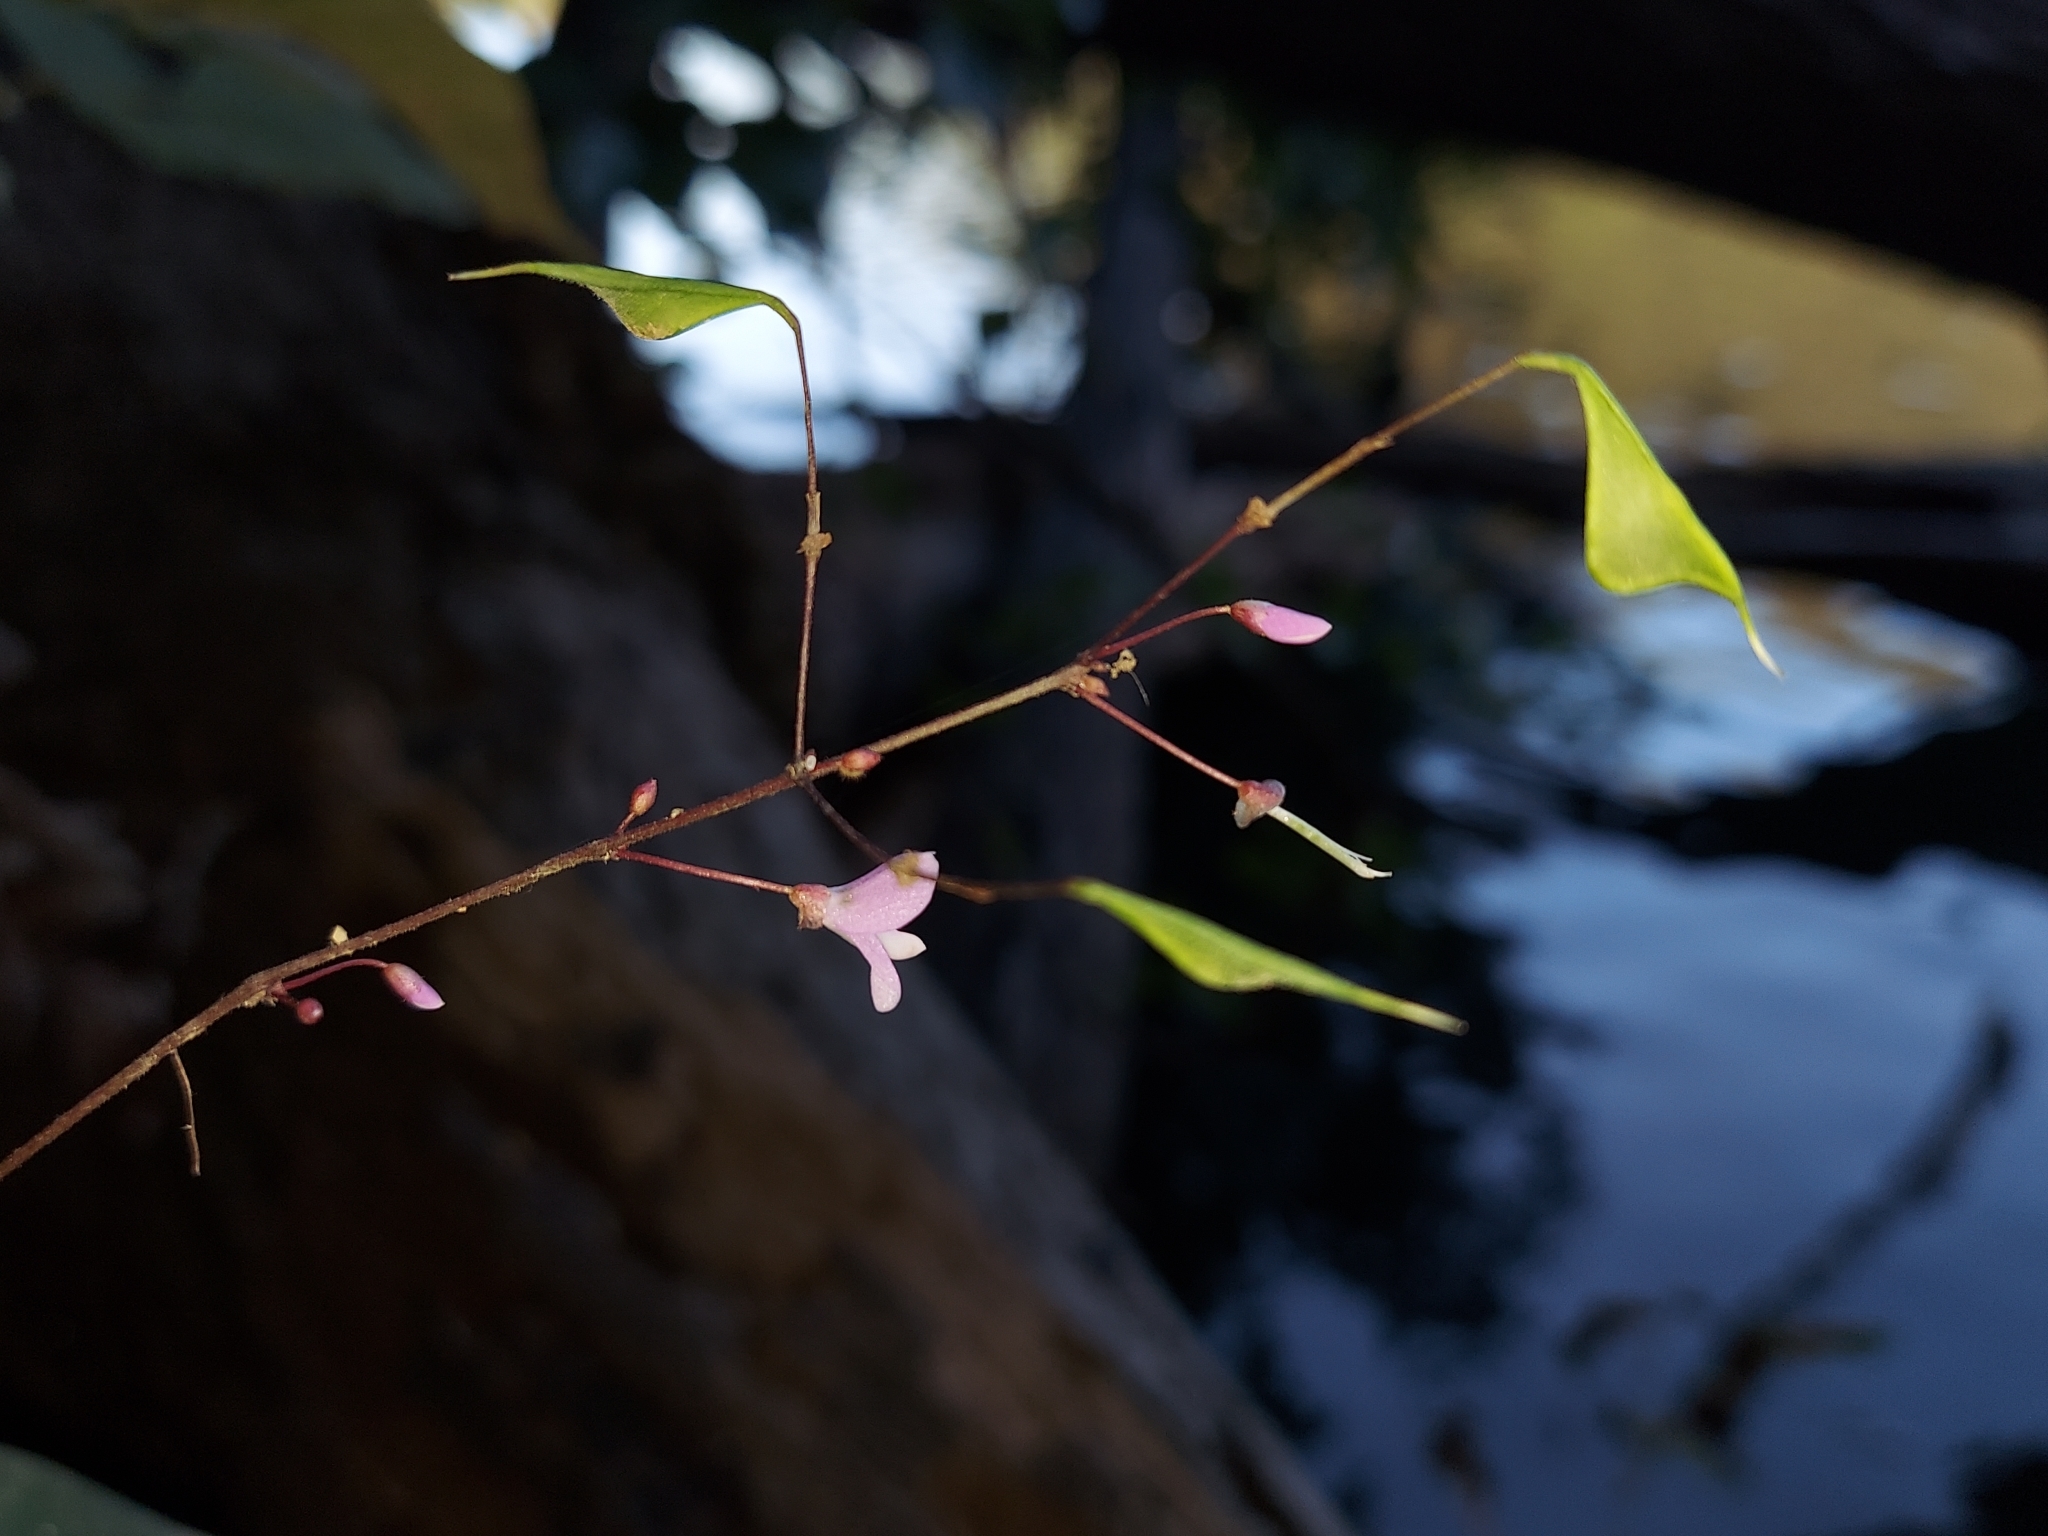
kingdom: Plantae
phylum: Tracheophyta
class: Magnoliopsida
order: Fabales
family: Fabaceae
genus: Hylodesmum
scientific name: Hylodesmum nudiflorum
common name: Bare-stemmed tick-trefoil
